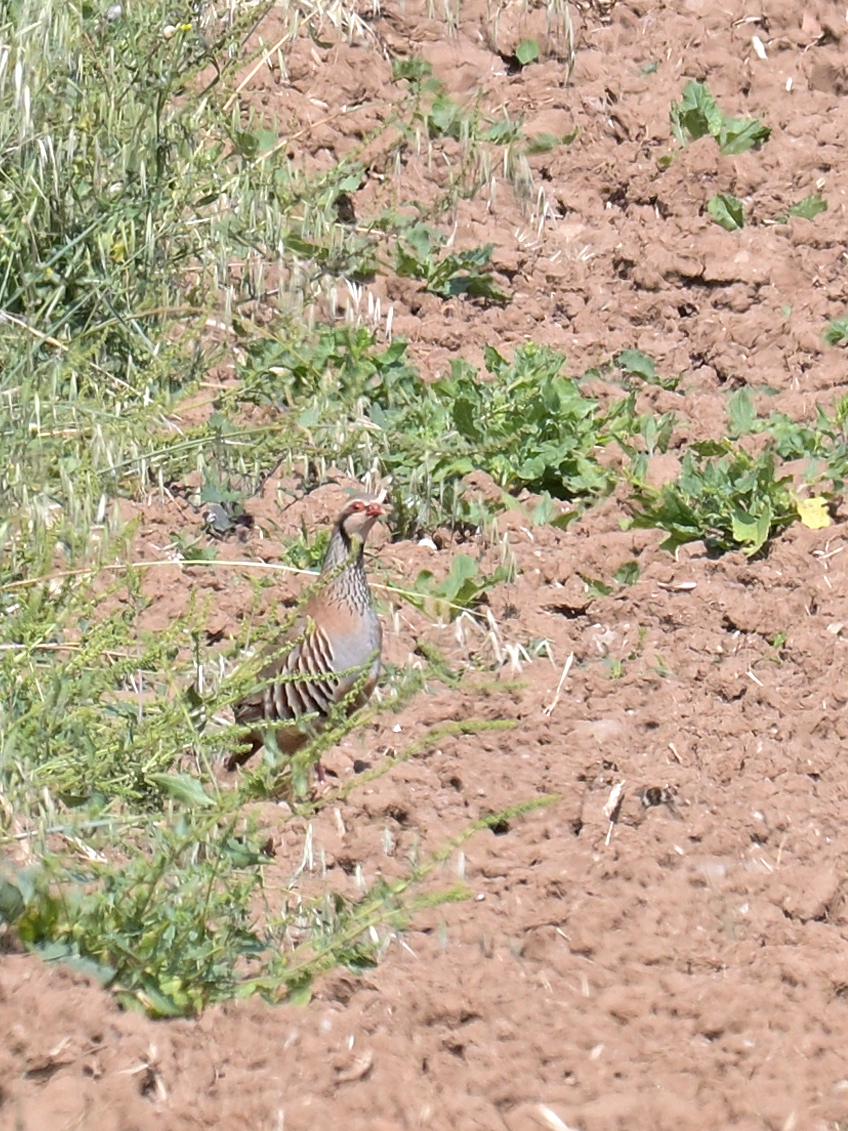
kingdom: Animalia
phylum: Chordata
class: Aves
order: Galliformes
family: Phasianidae
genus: Alectoris
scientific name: Alectoris rufa
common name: Red-legged partridge
